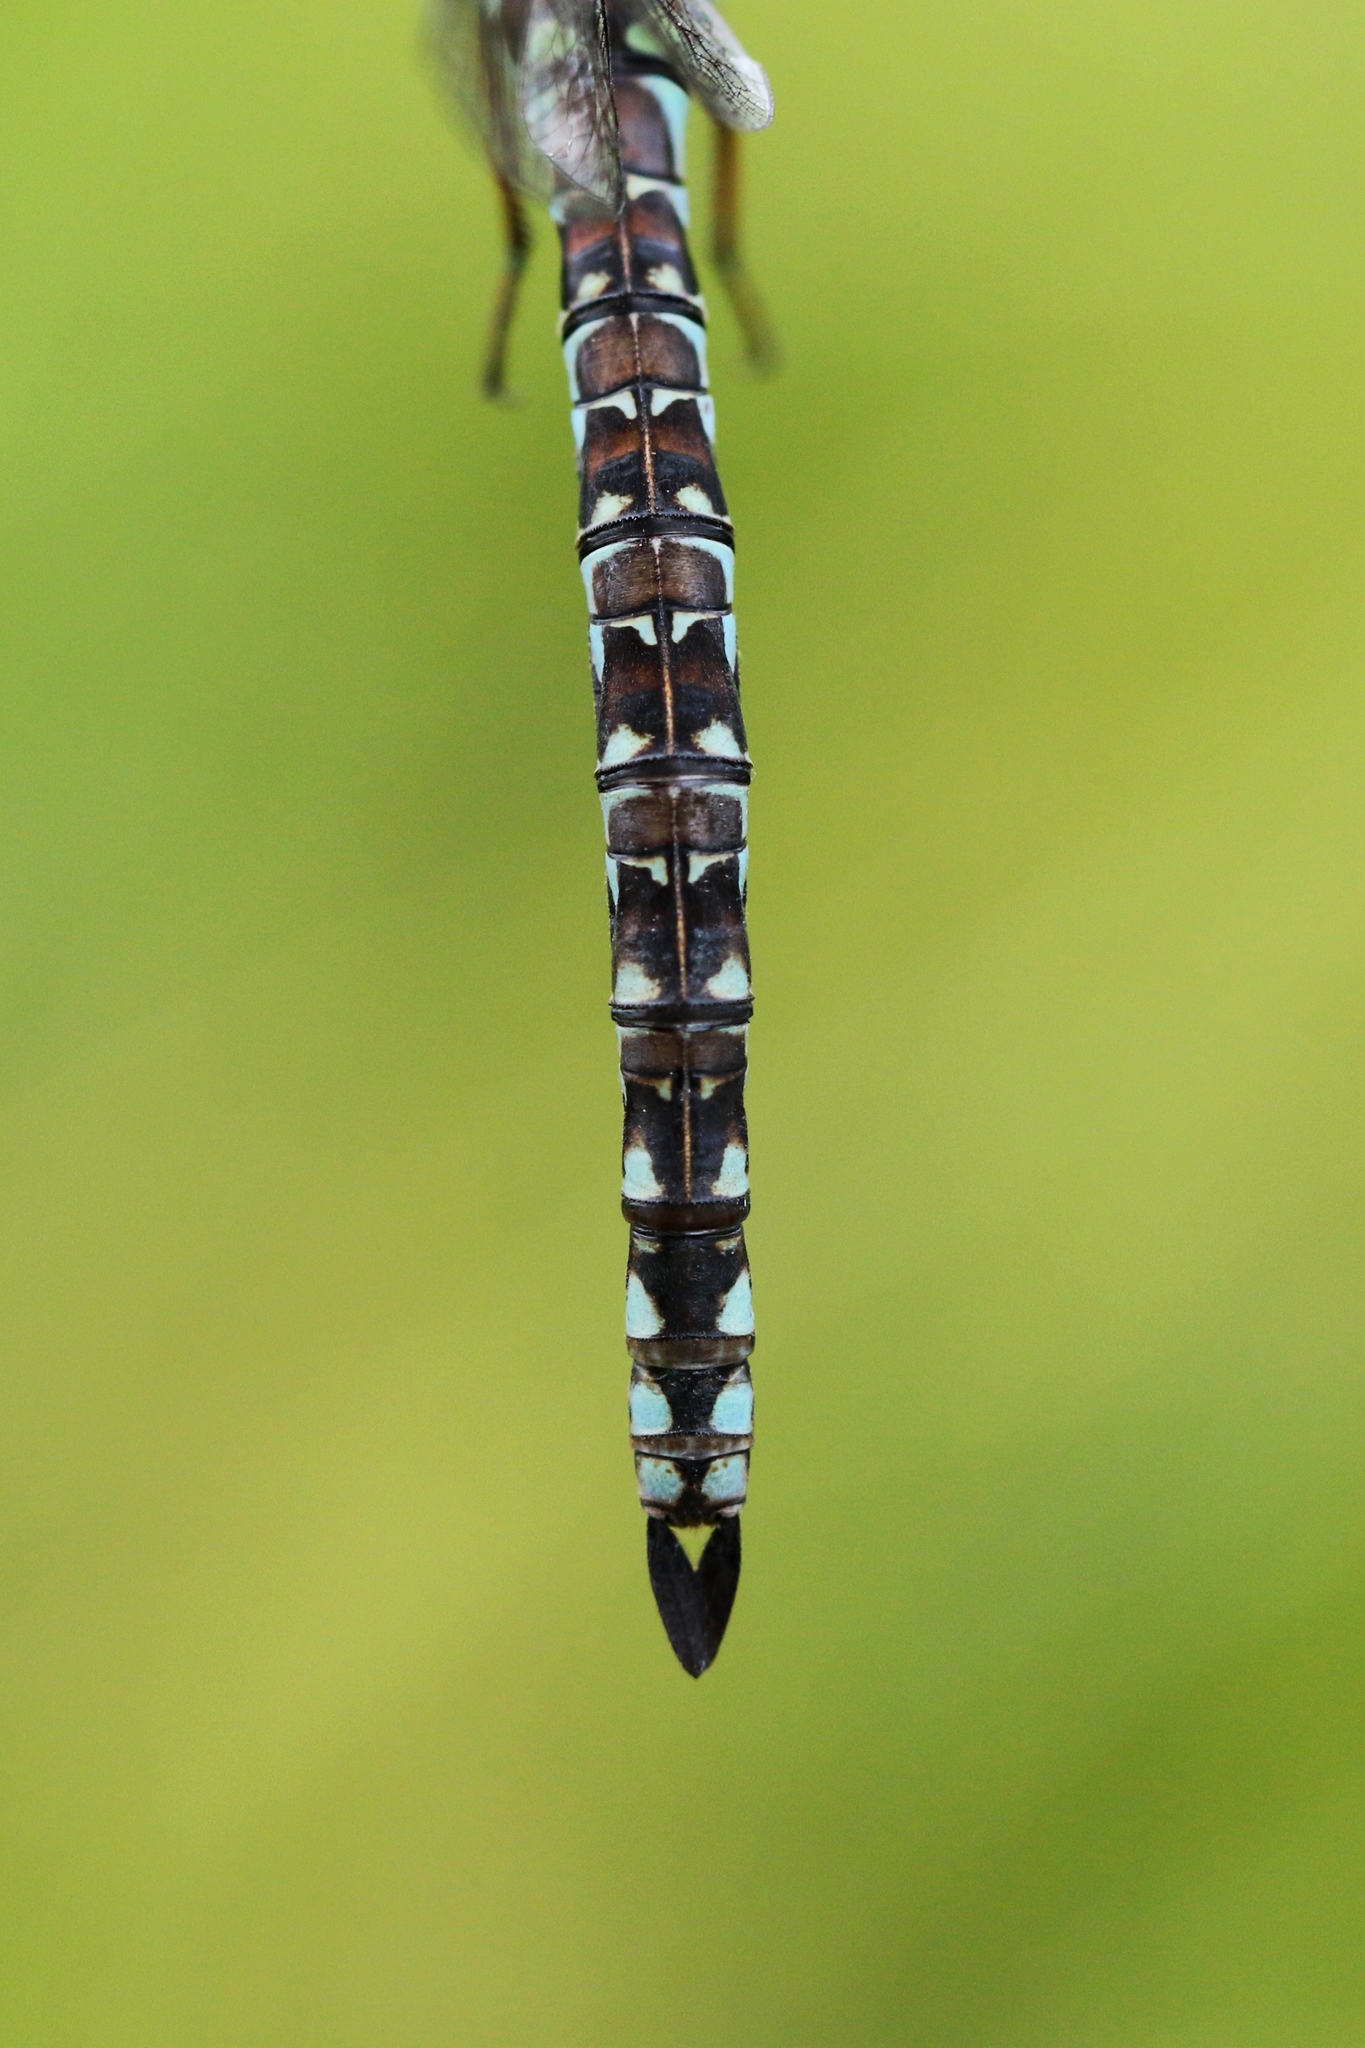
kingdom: Animalia
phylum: Arthropoda
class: Insecta
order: Odonata
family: Aeshnidae
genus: Aeshna
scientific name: Aeshna sitchensis
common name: Zigzag darner
